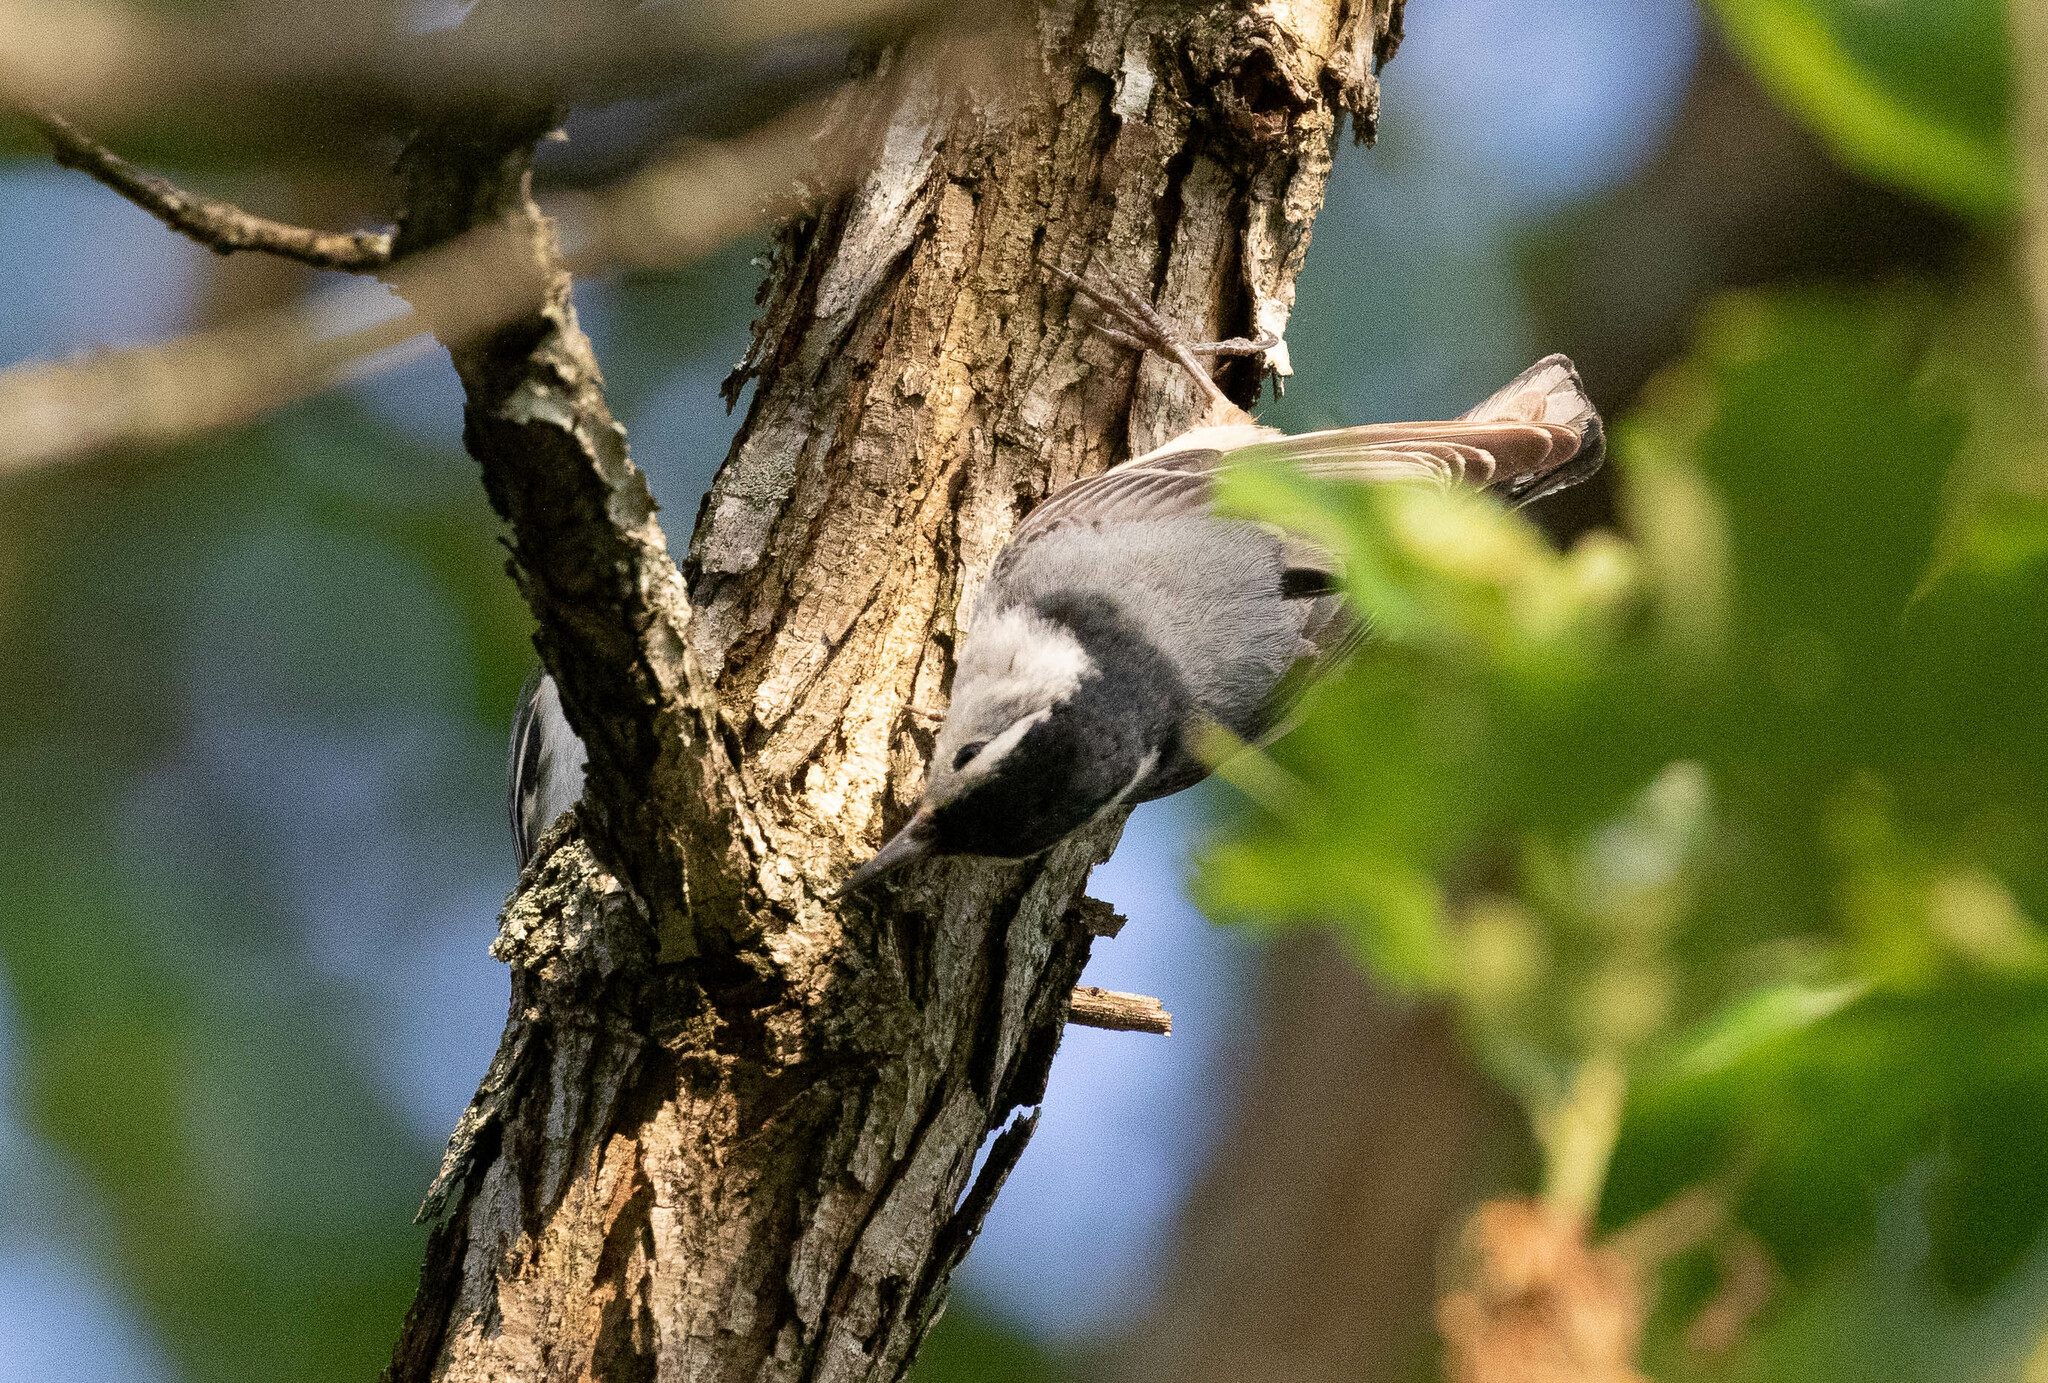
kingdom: Animalia
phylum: Chordata
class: Aves
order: Passeriformes
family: Sittidae
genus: Sitta
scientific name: Sitta carolinensis
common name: White-breasted nuthatch
